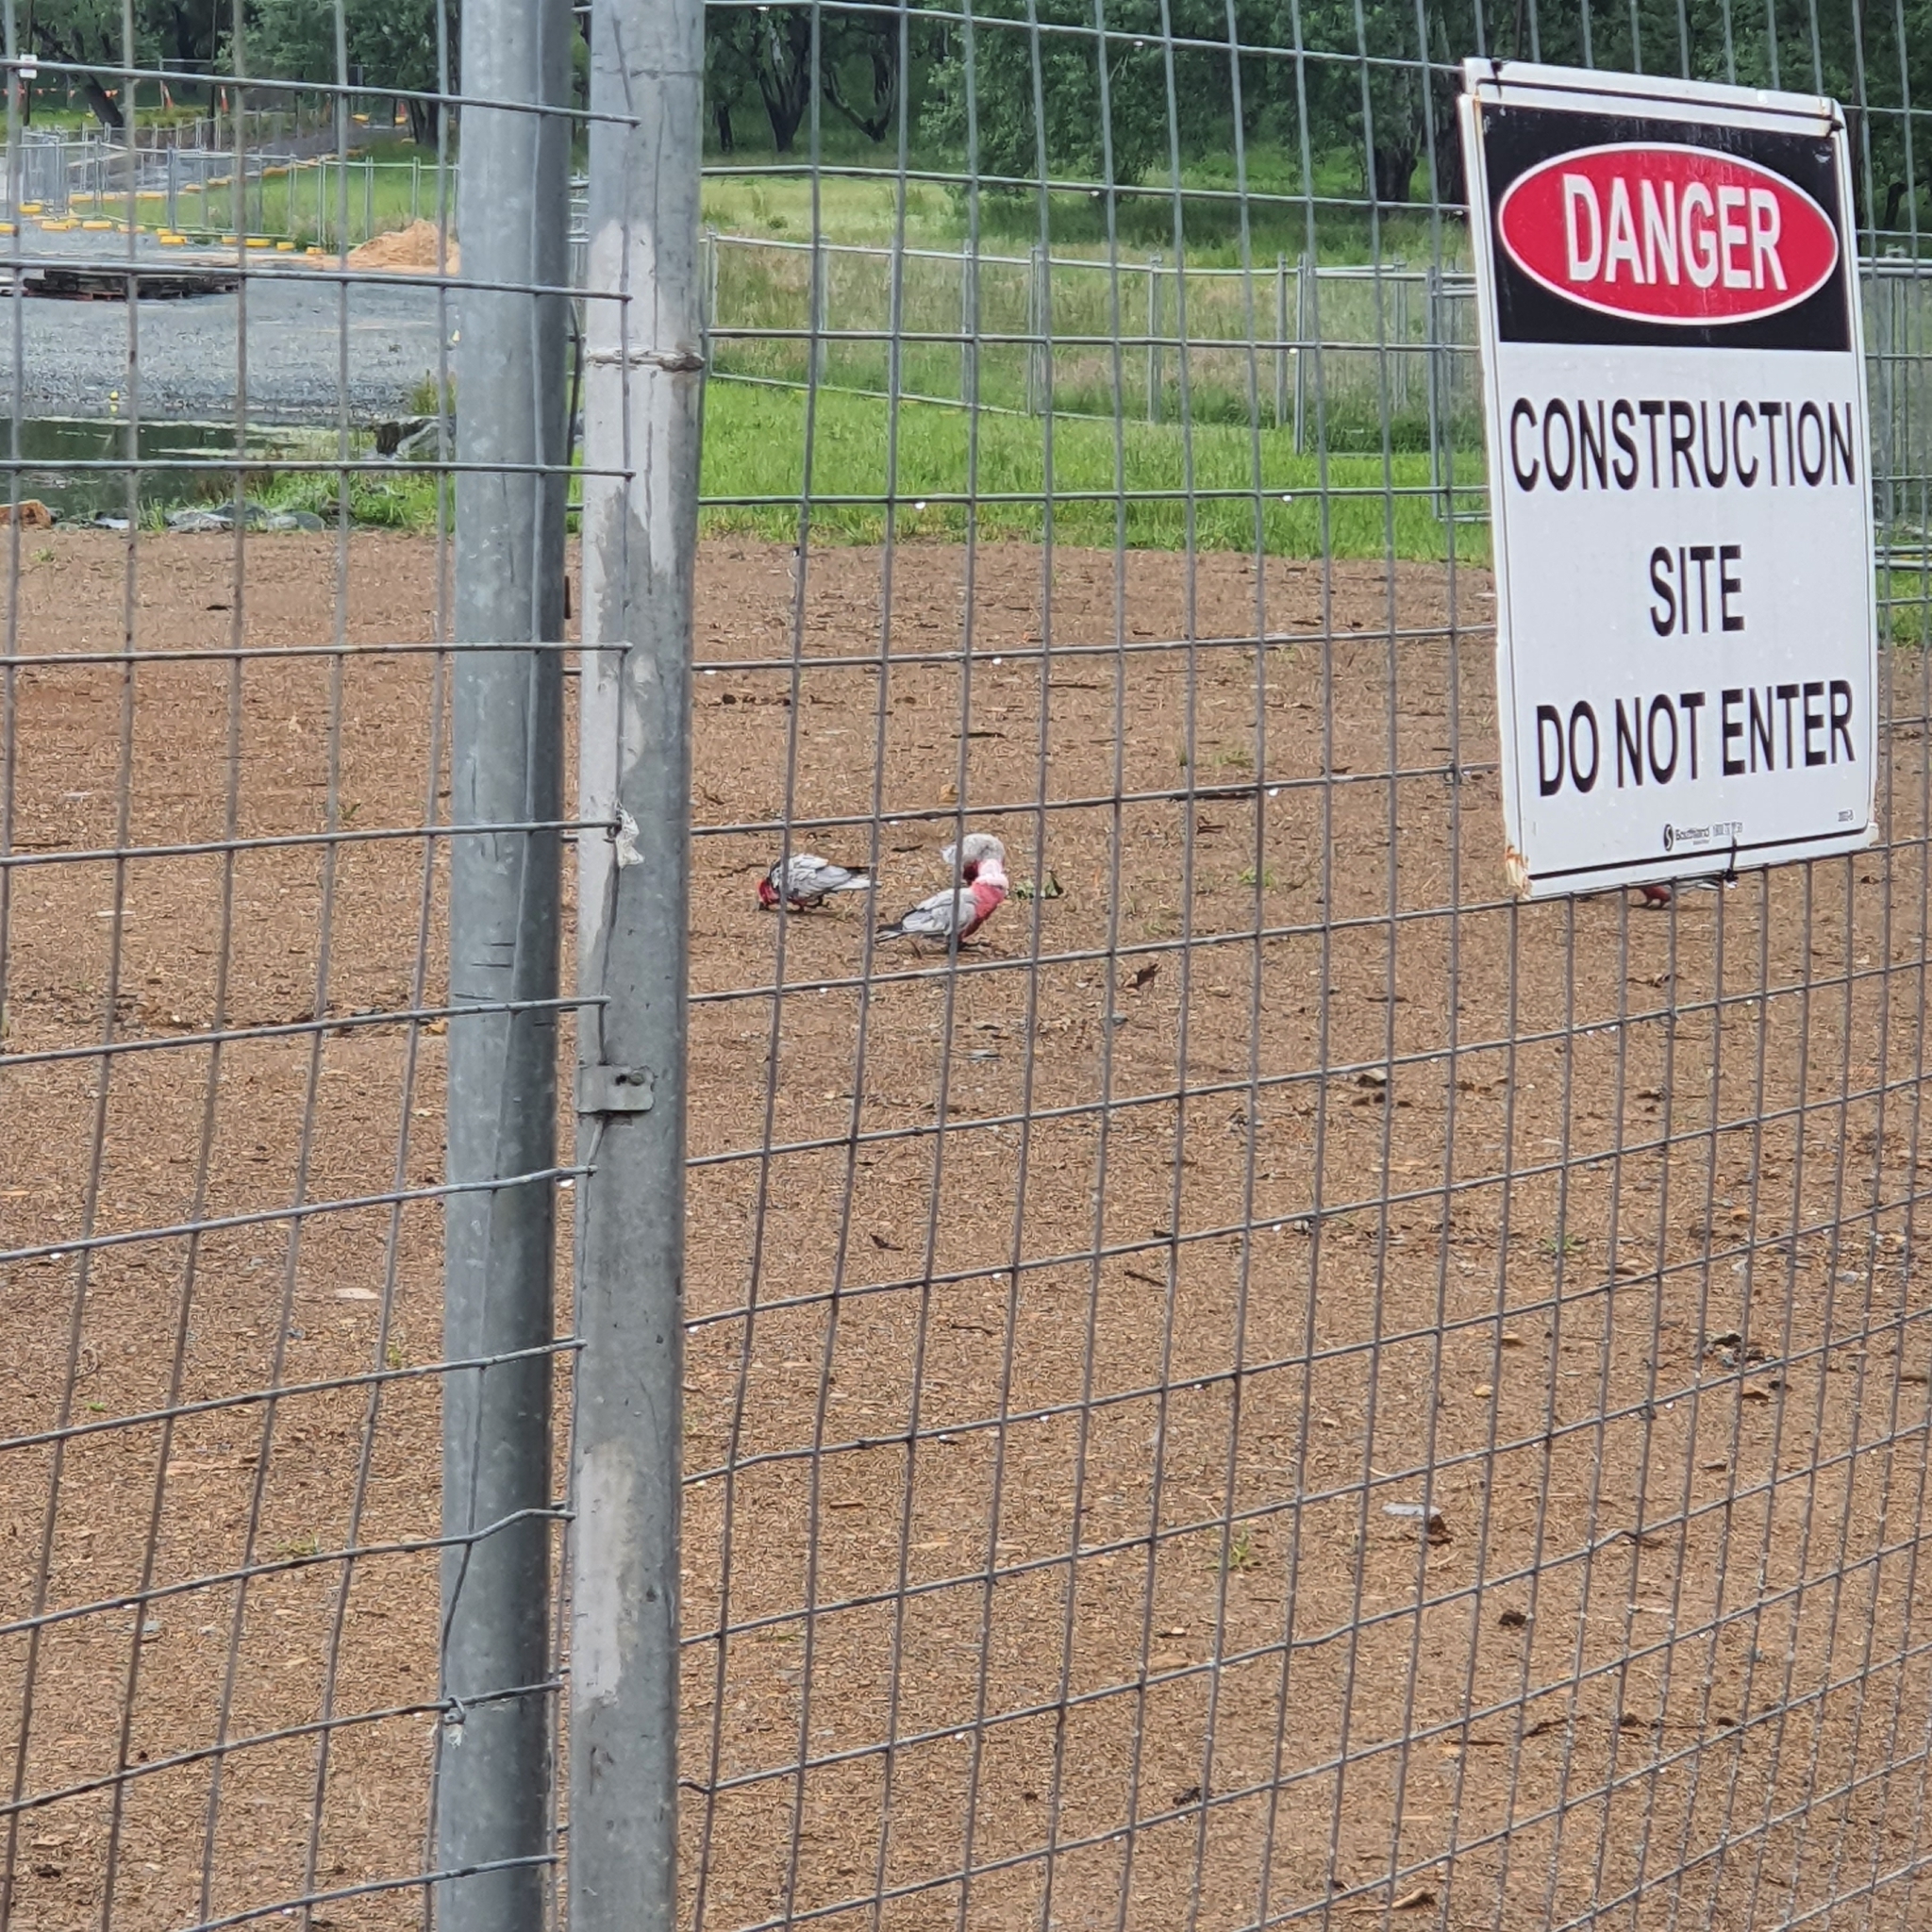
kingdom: Animalia
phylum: Chordata
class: Aves
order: Psittaciformes
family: Psittacidae
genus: Eolophus
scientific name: Eolophus roseicapilla
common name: Galah
